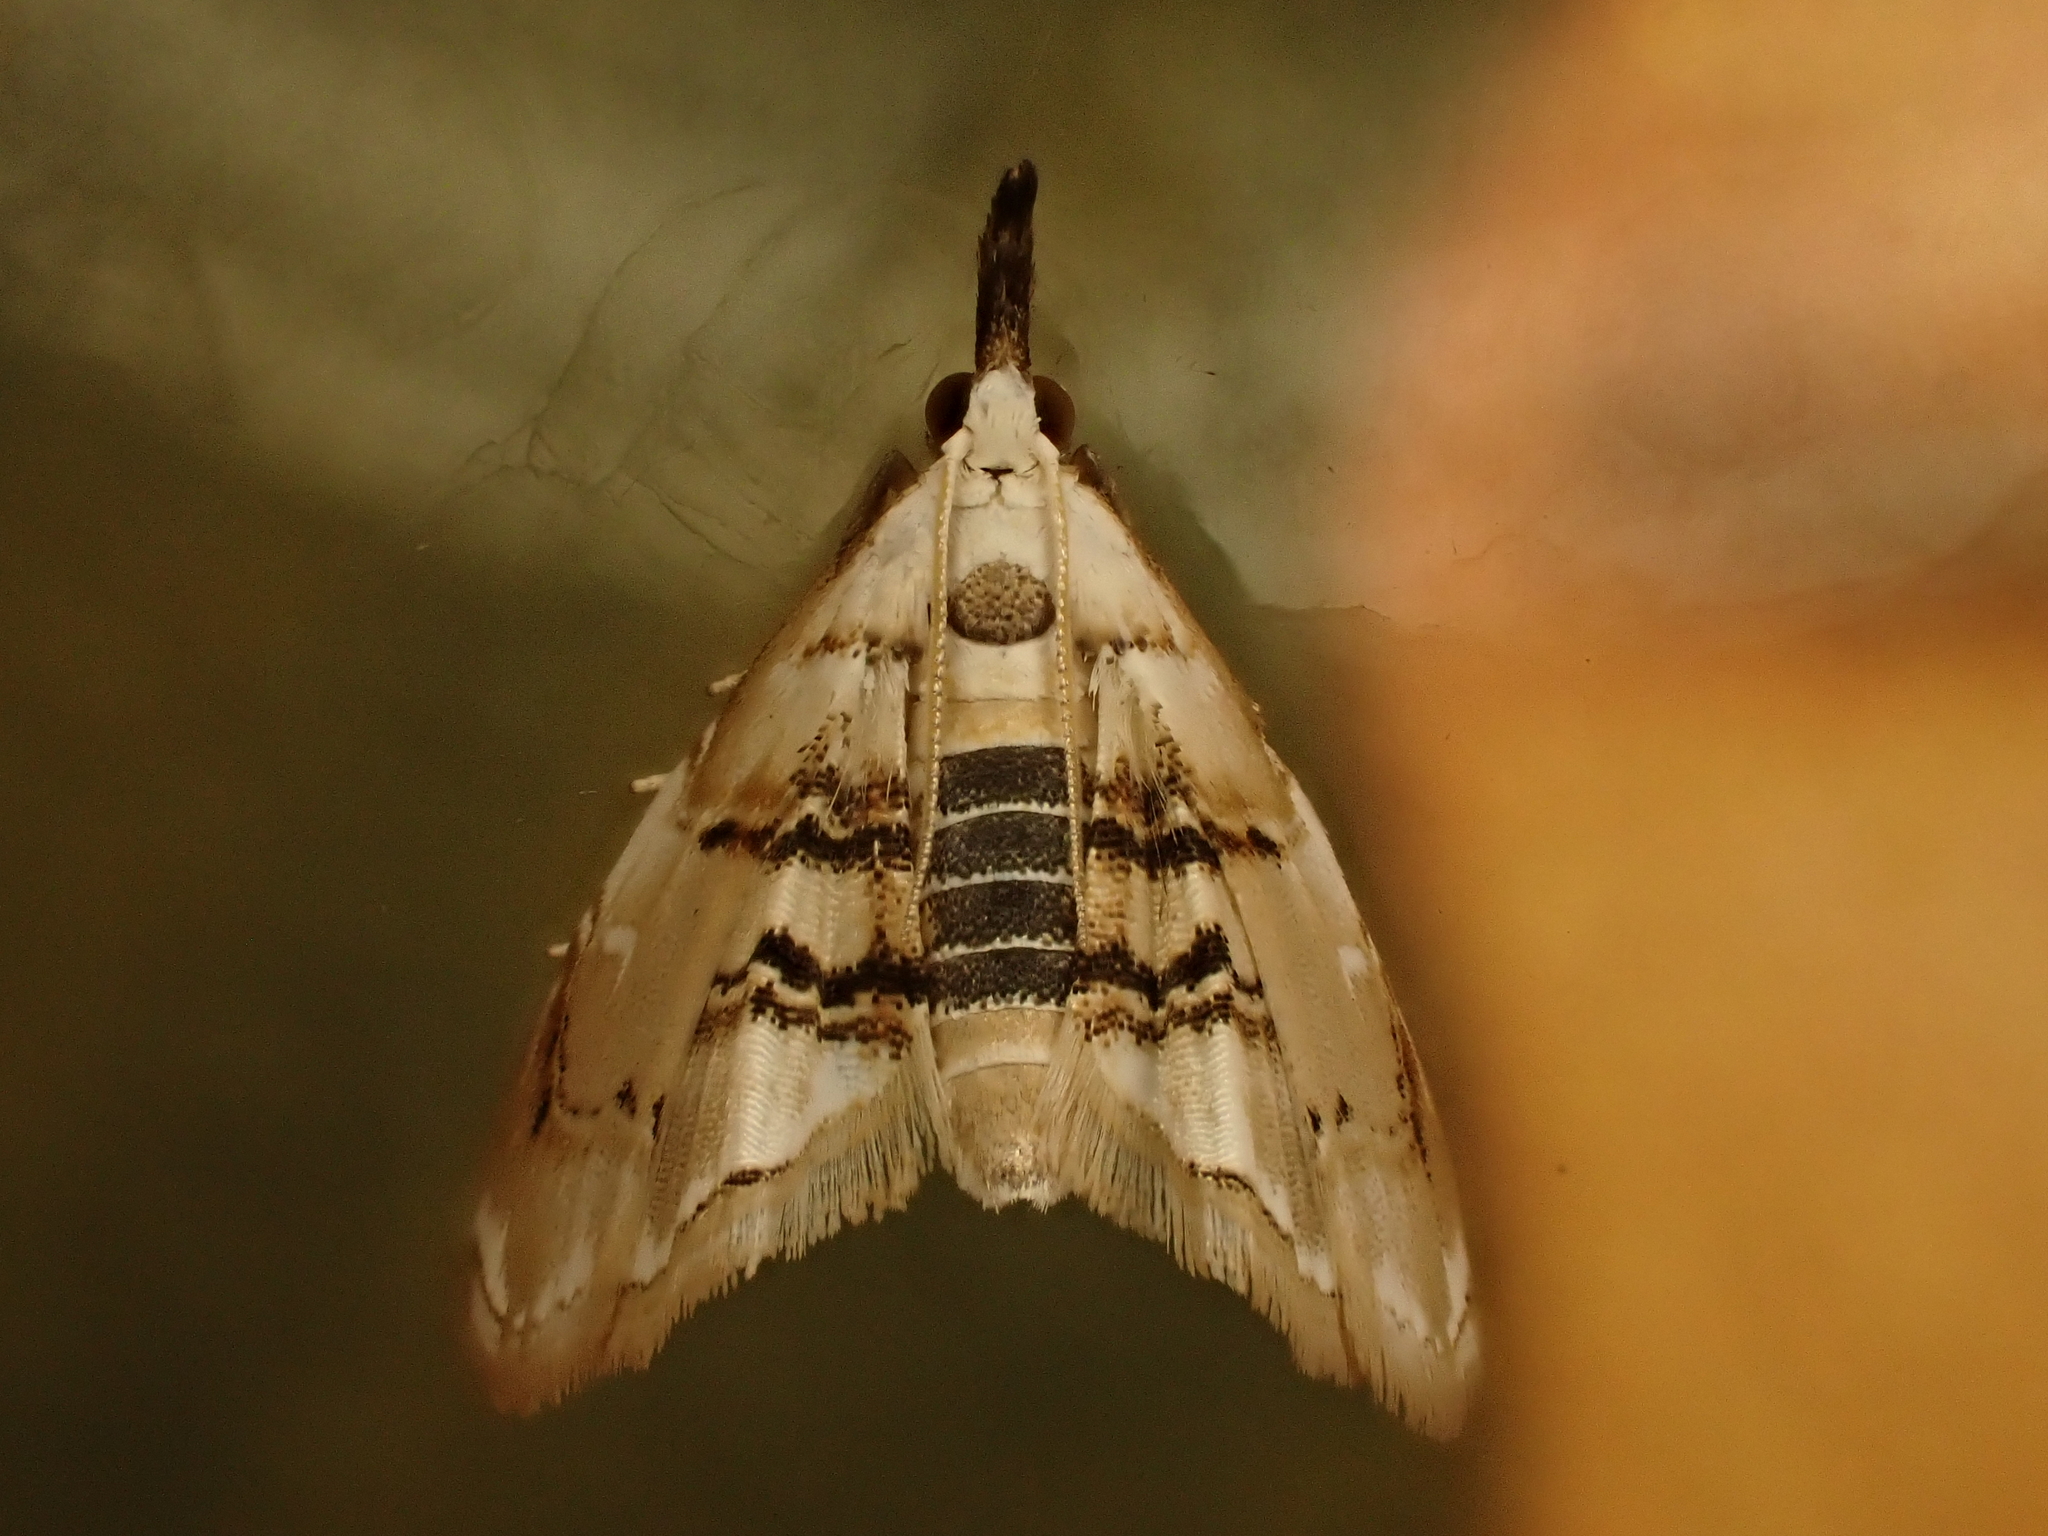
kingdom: Animalia
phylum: Arthropoda
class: Insecta
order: Lepidoptera
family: Crambidae
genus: Trichophysetis
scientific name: Trichophysetis
